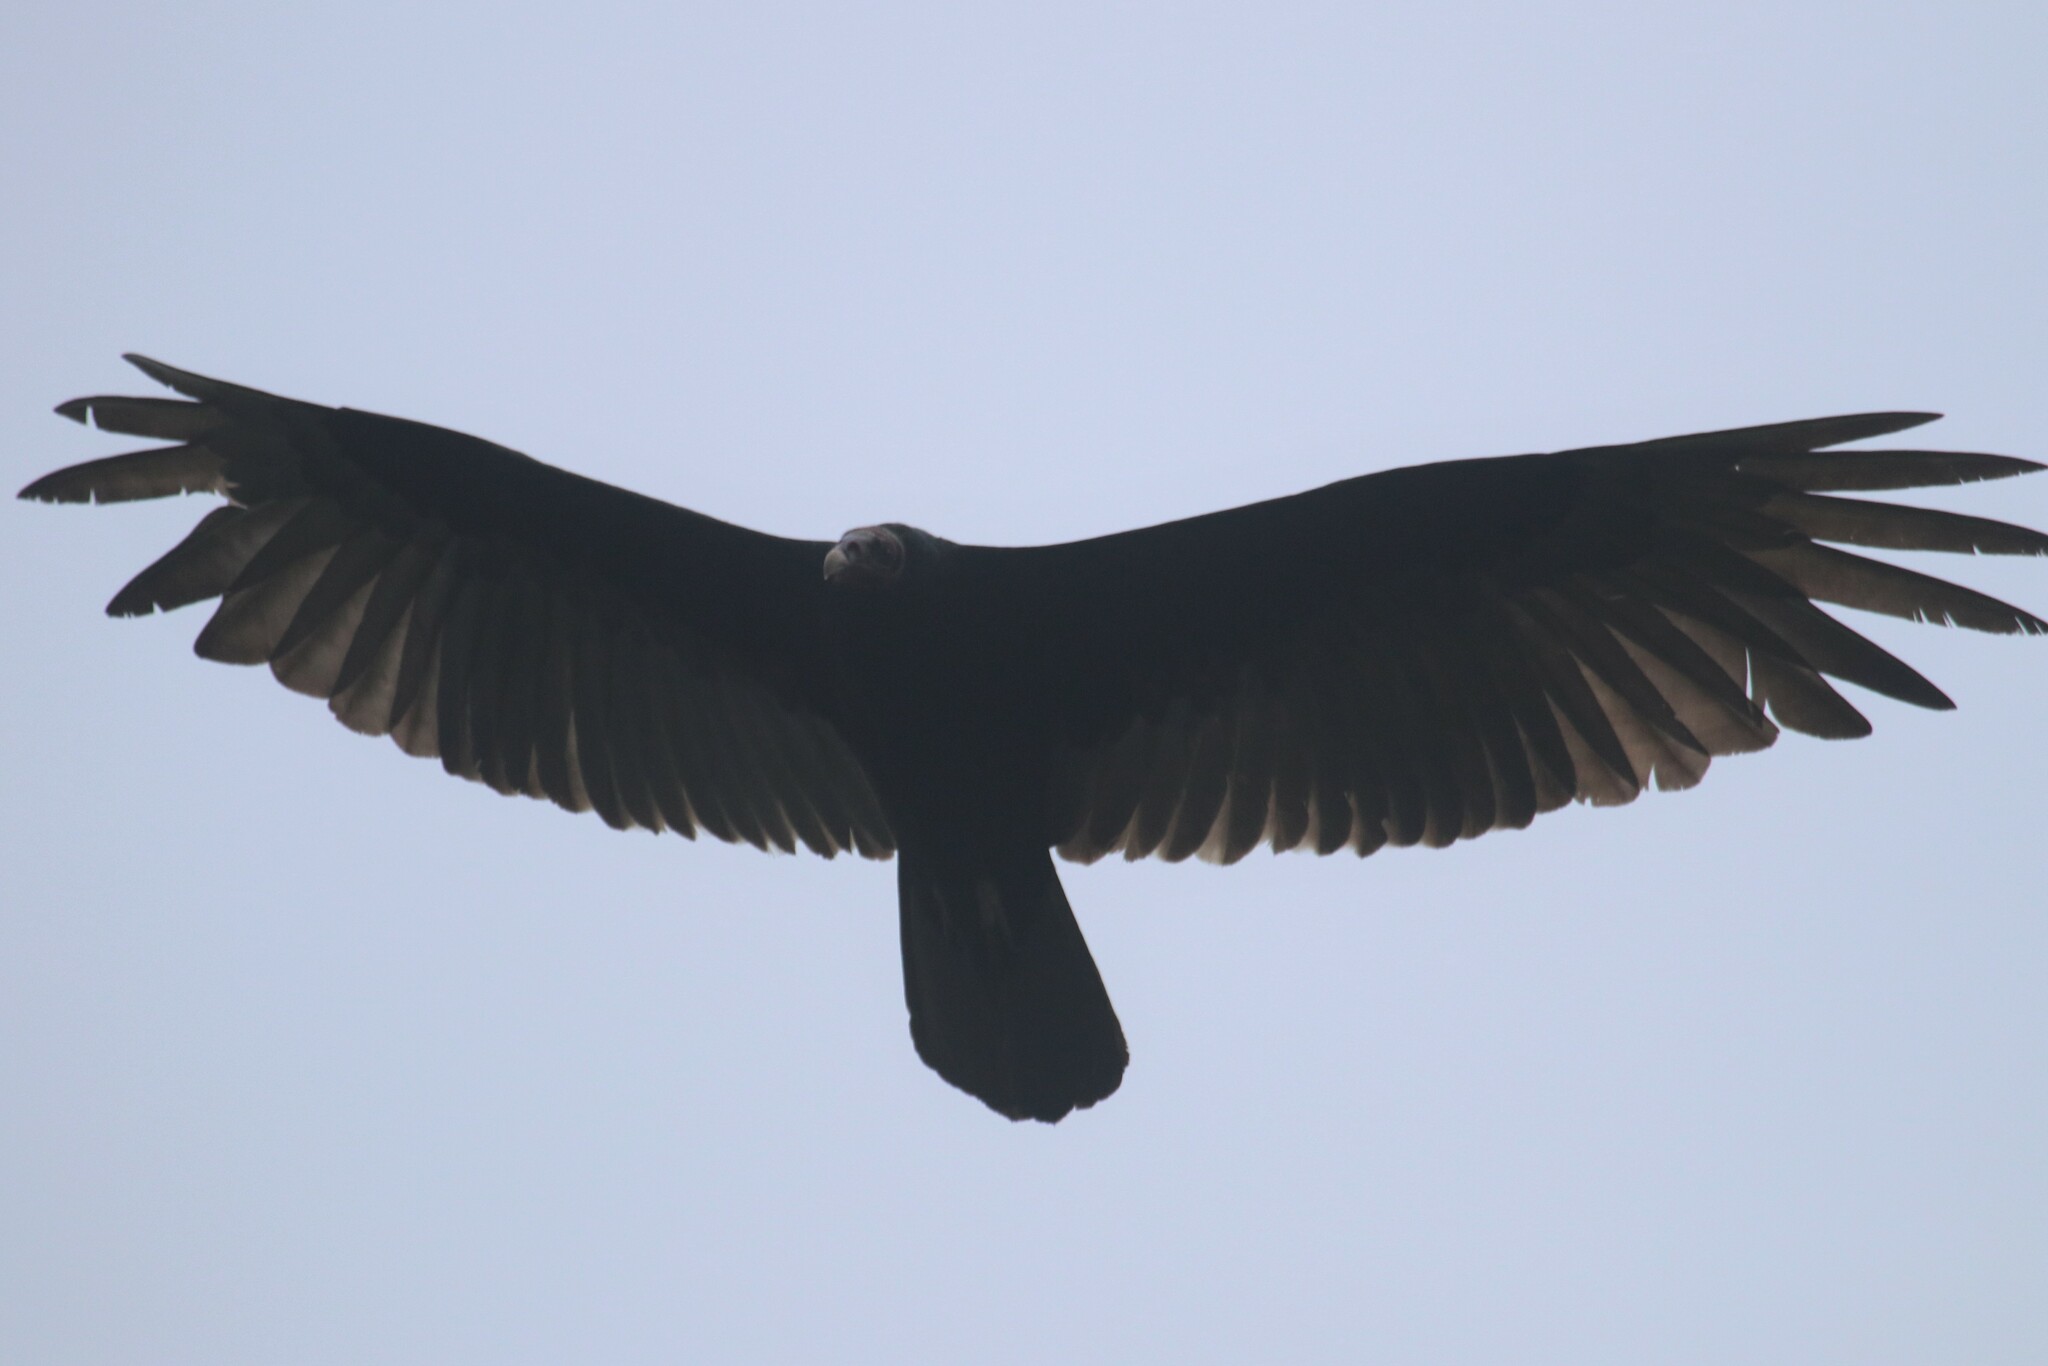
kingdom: Animalia
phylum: Chordata
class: Aves
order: Accipitriformes
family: Cathartidae
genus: Cathartes
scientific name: Cathartes aura
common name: Turkey vulture
